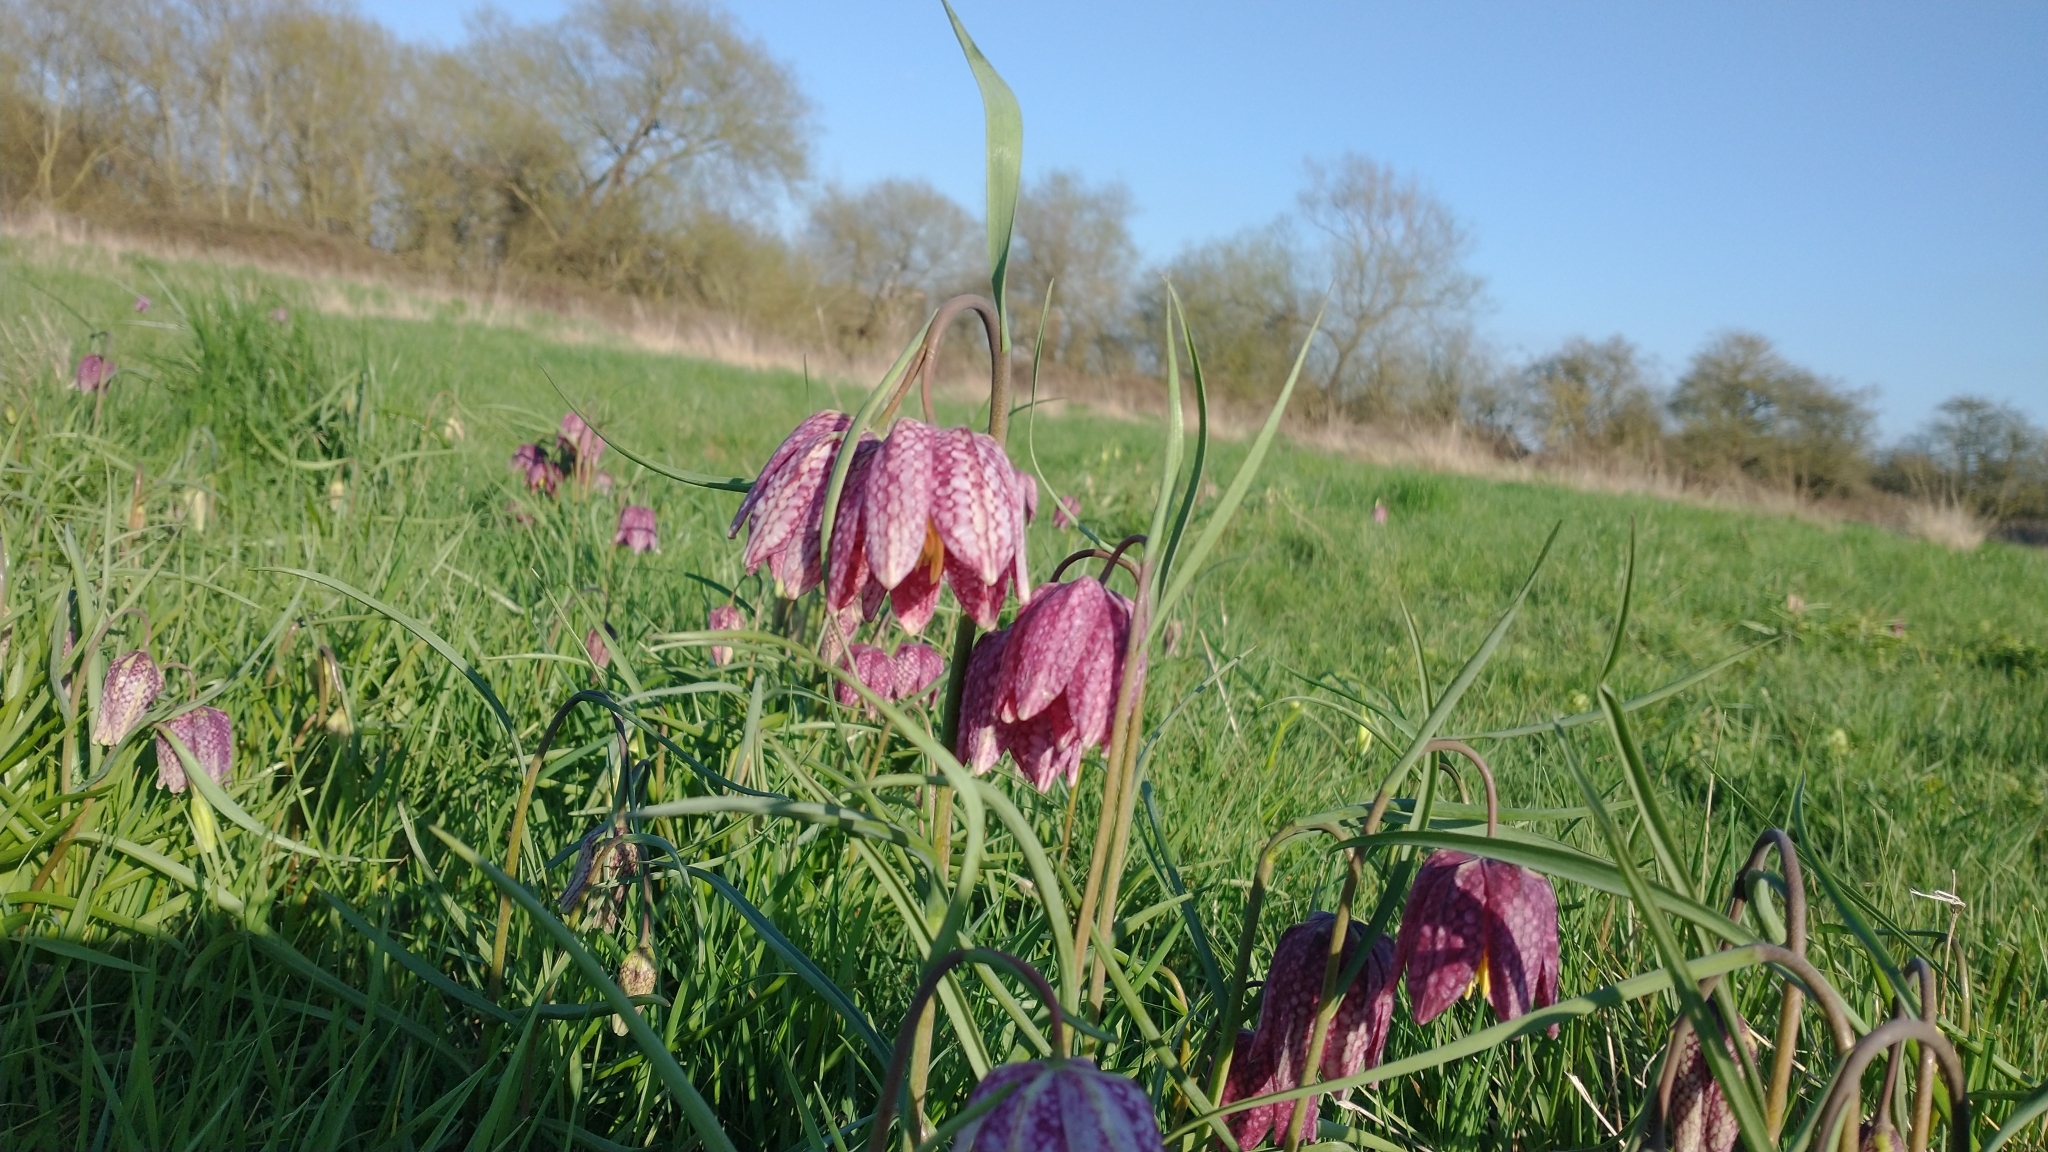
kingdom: Plantae
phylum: Tracheophyta
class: Liliopsida
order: Liliales
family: Liliaceae
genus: Fritillaria
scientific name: Fritillaria meleagris
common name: Fritillary
